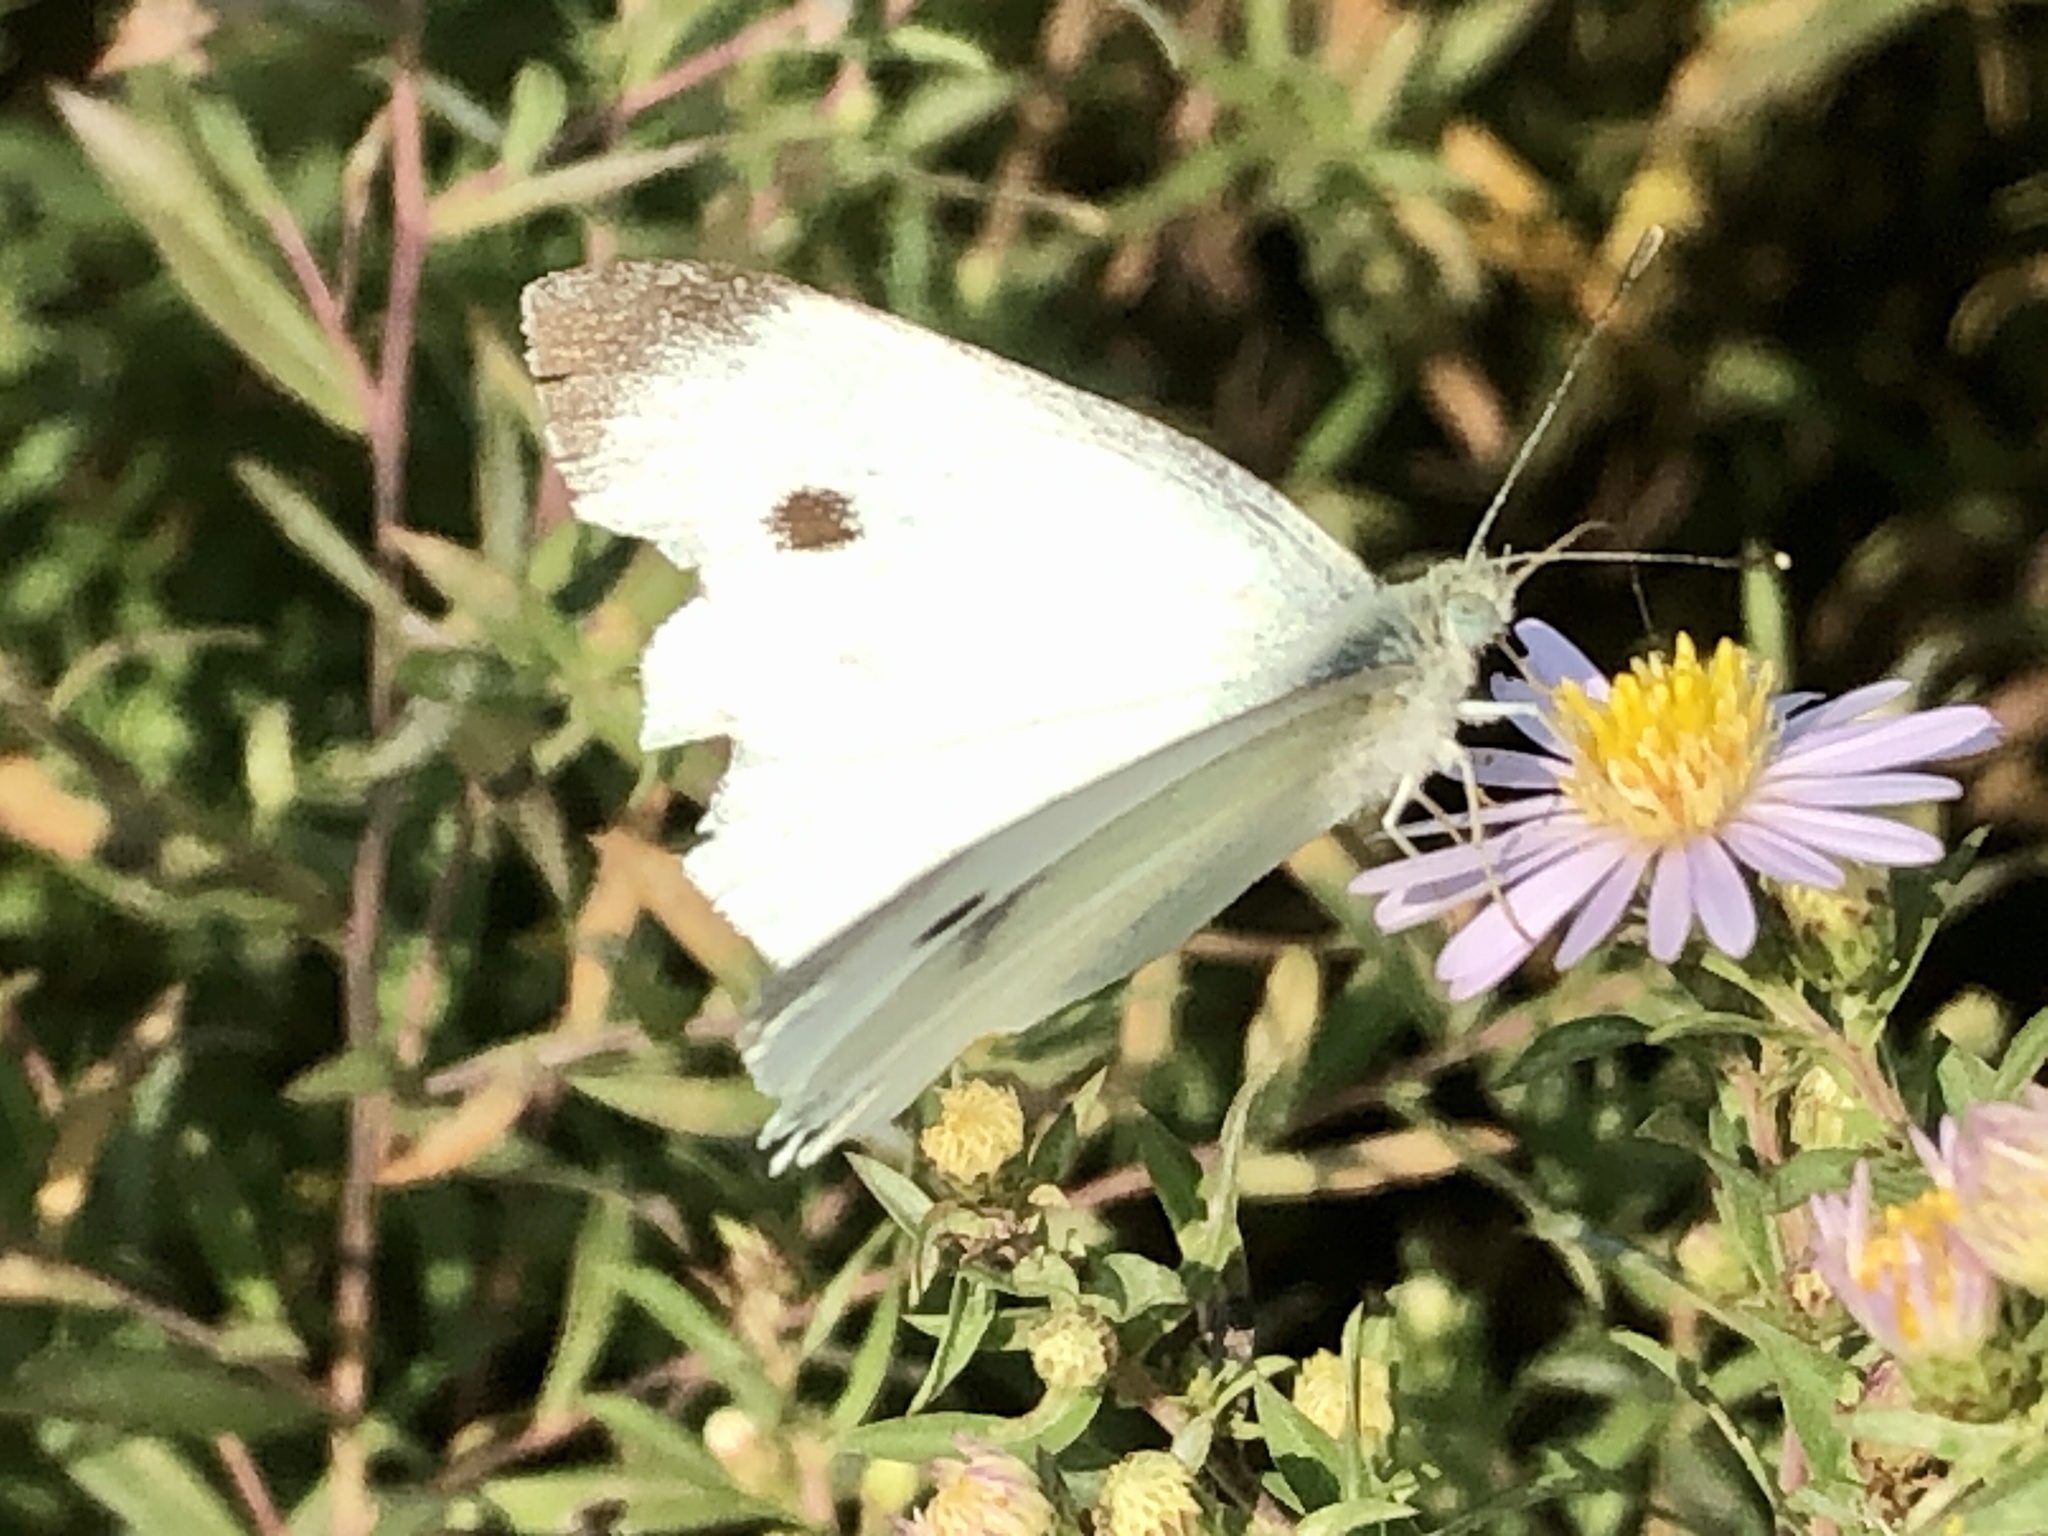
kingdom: Animalia
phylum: Arthropoda
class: Insecta
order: Lepidoptera
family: Pieridae
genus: Pieris
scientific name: Pieris rapae
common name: Small white
